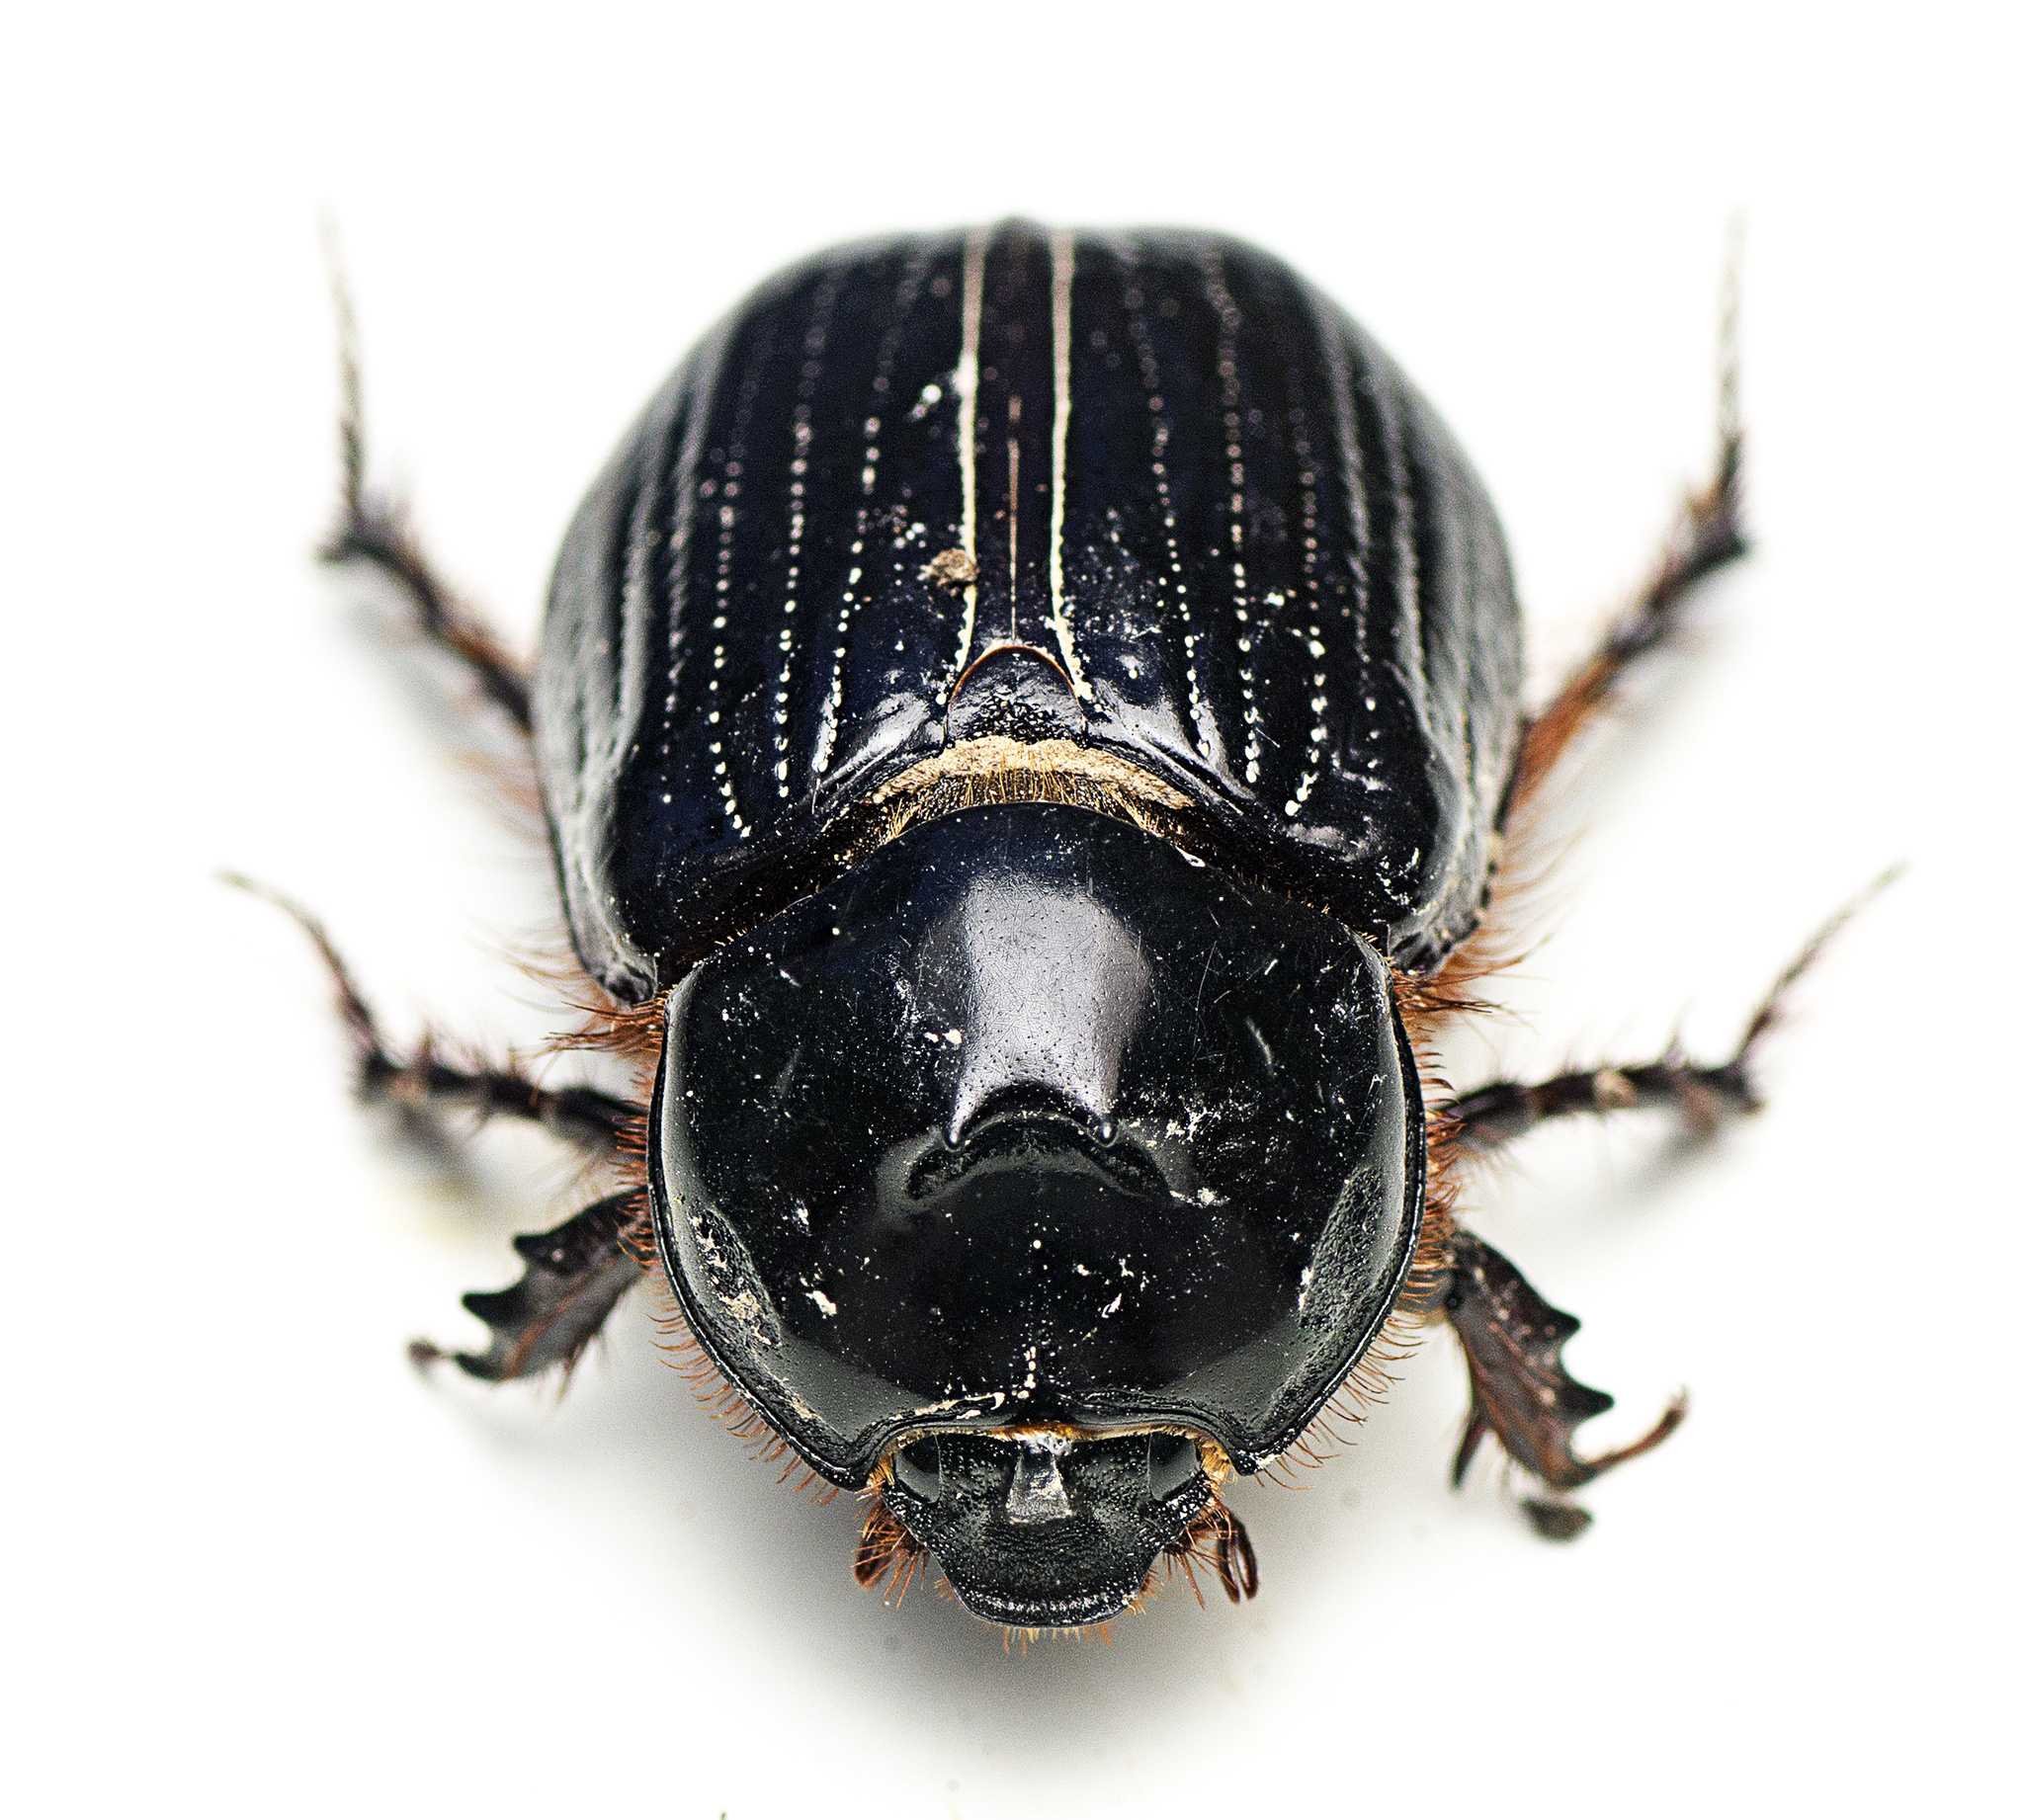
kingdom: Animalia
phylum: Arthropoda
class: Insecta
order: Coleoptera
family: Scarabaeidae
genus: Dasygnathus
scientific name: Dasygnathus dejeani
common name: Redheaded whitegrub
